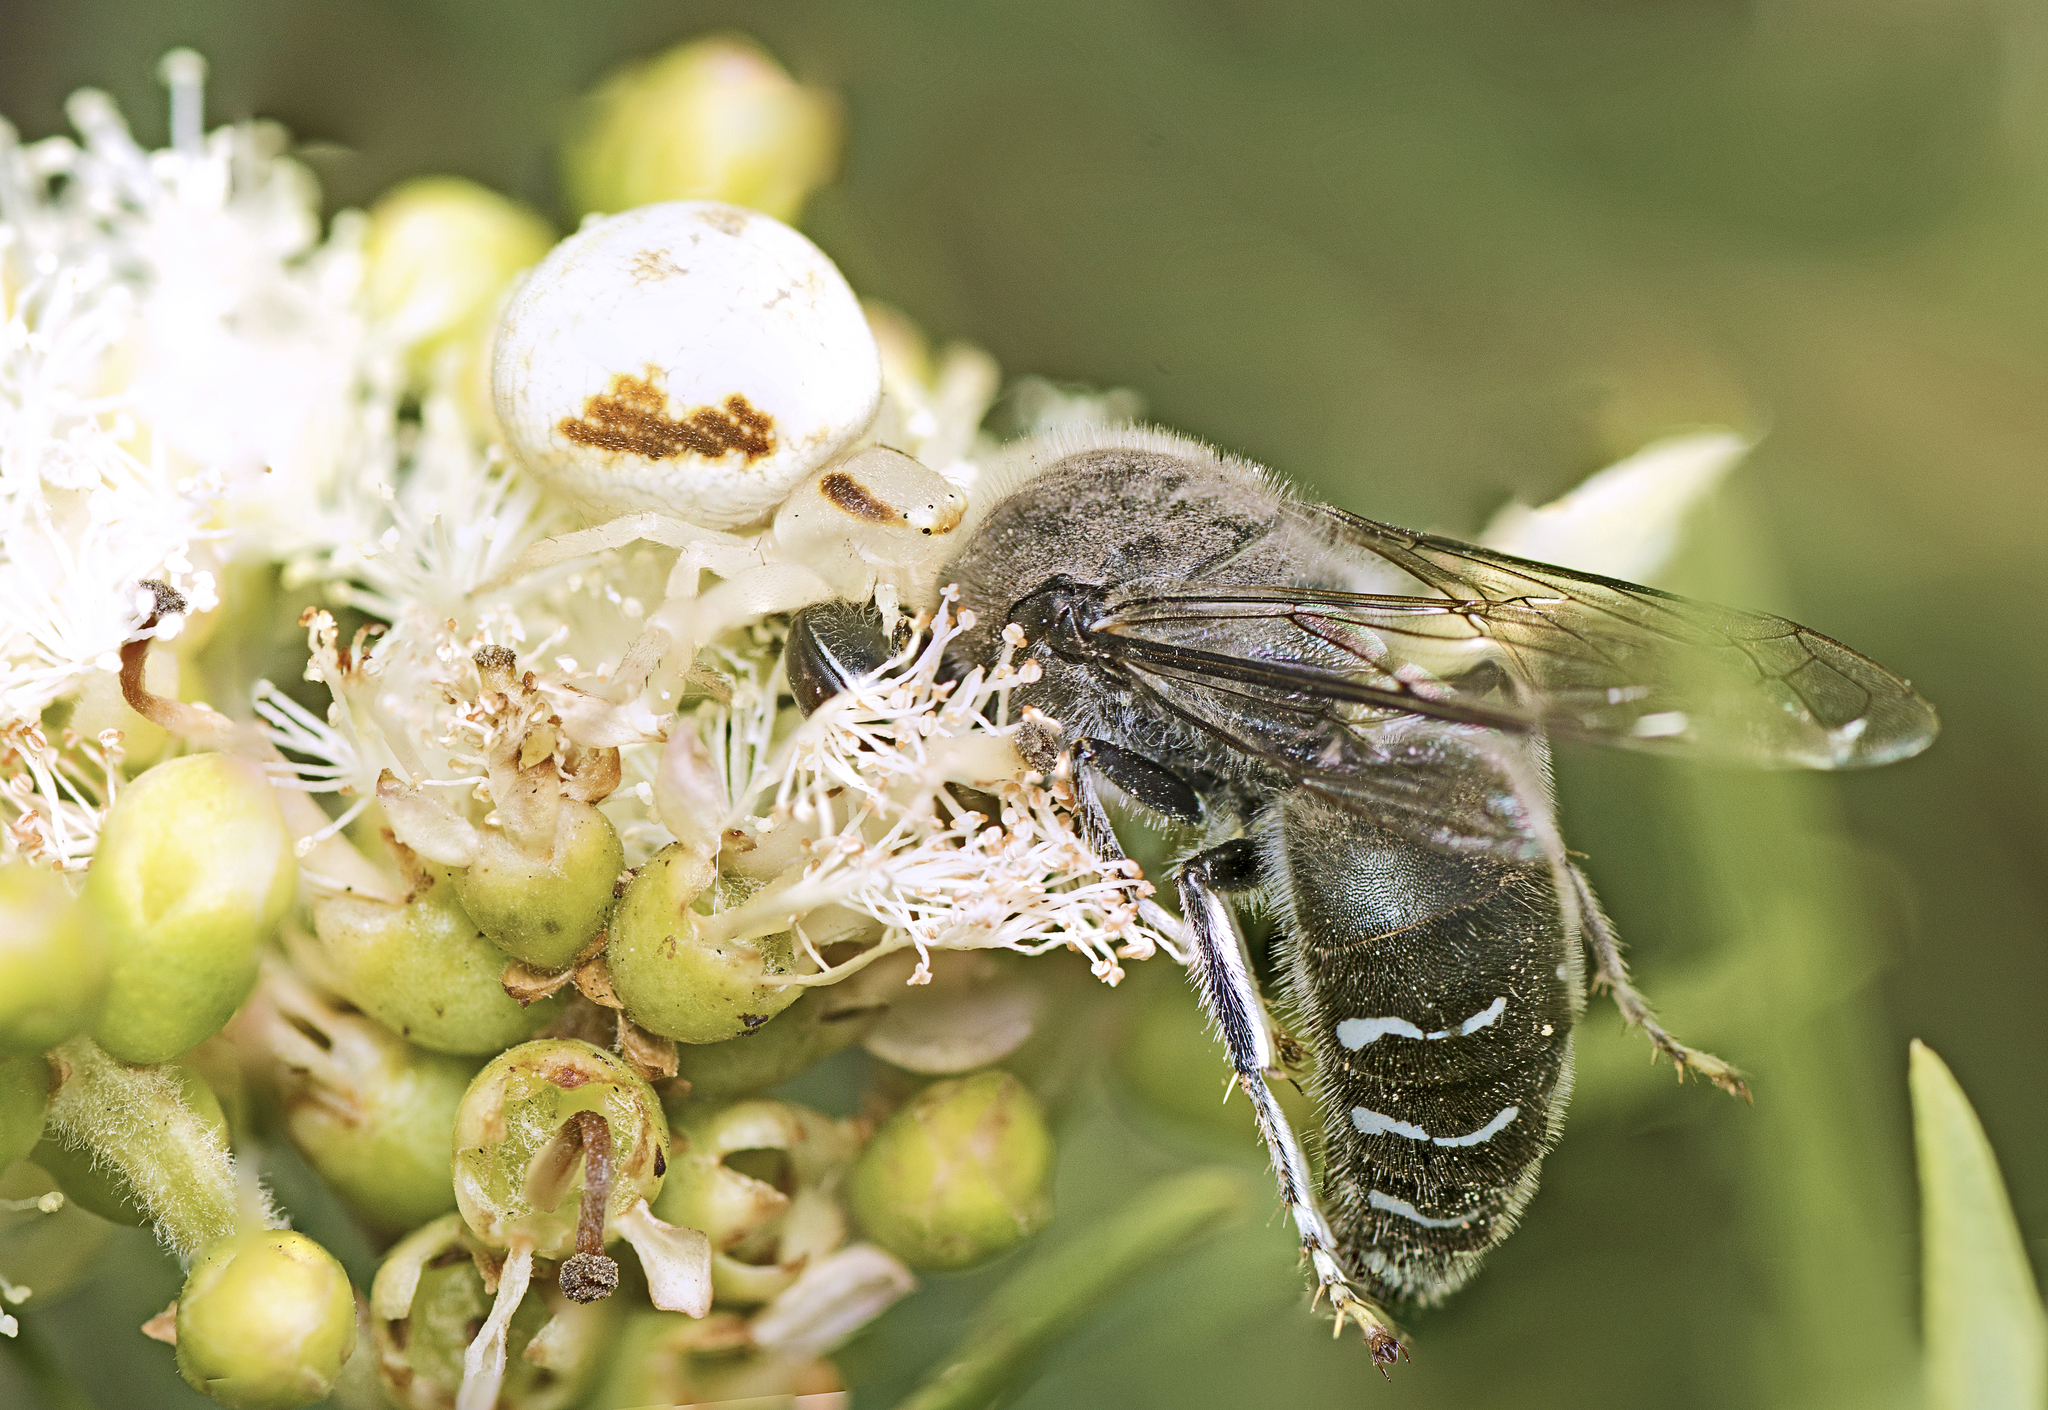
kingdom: Animalia
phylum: Arthropoda
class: Arachnida
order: Araneae
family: Thomisidae
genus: Zygometis
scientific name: Zygometis xanthogaster
